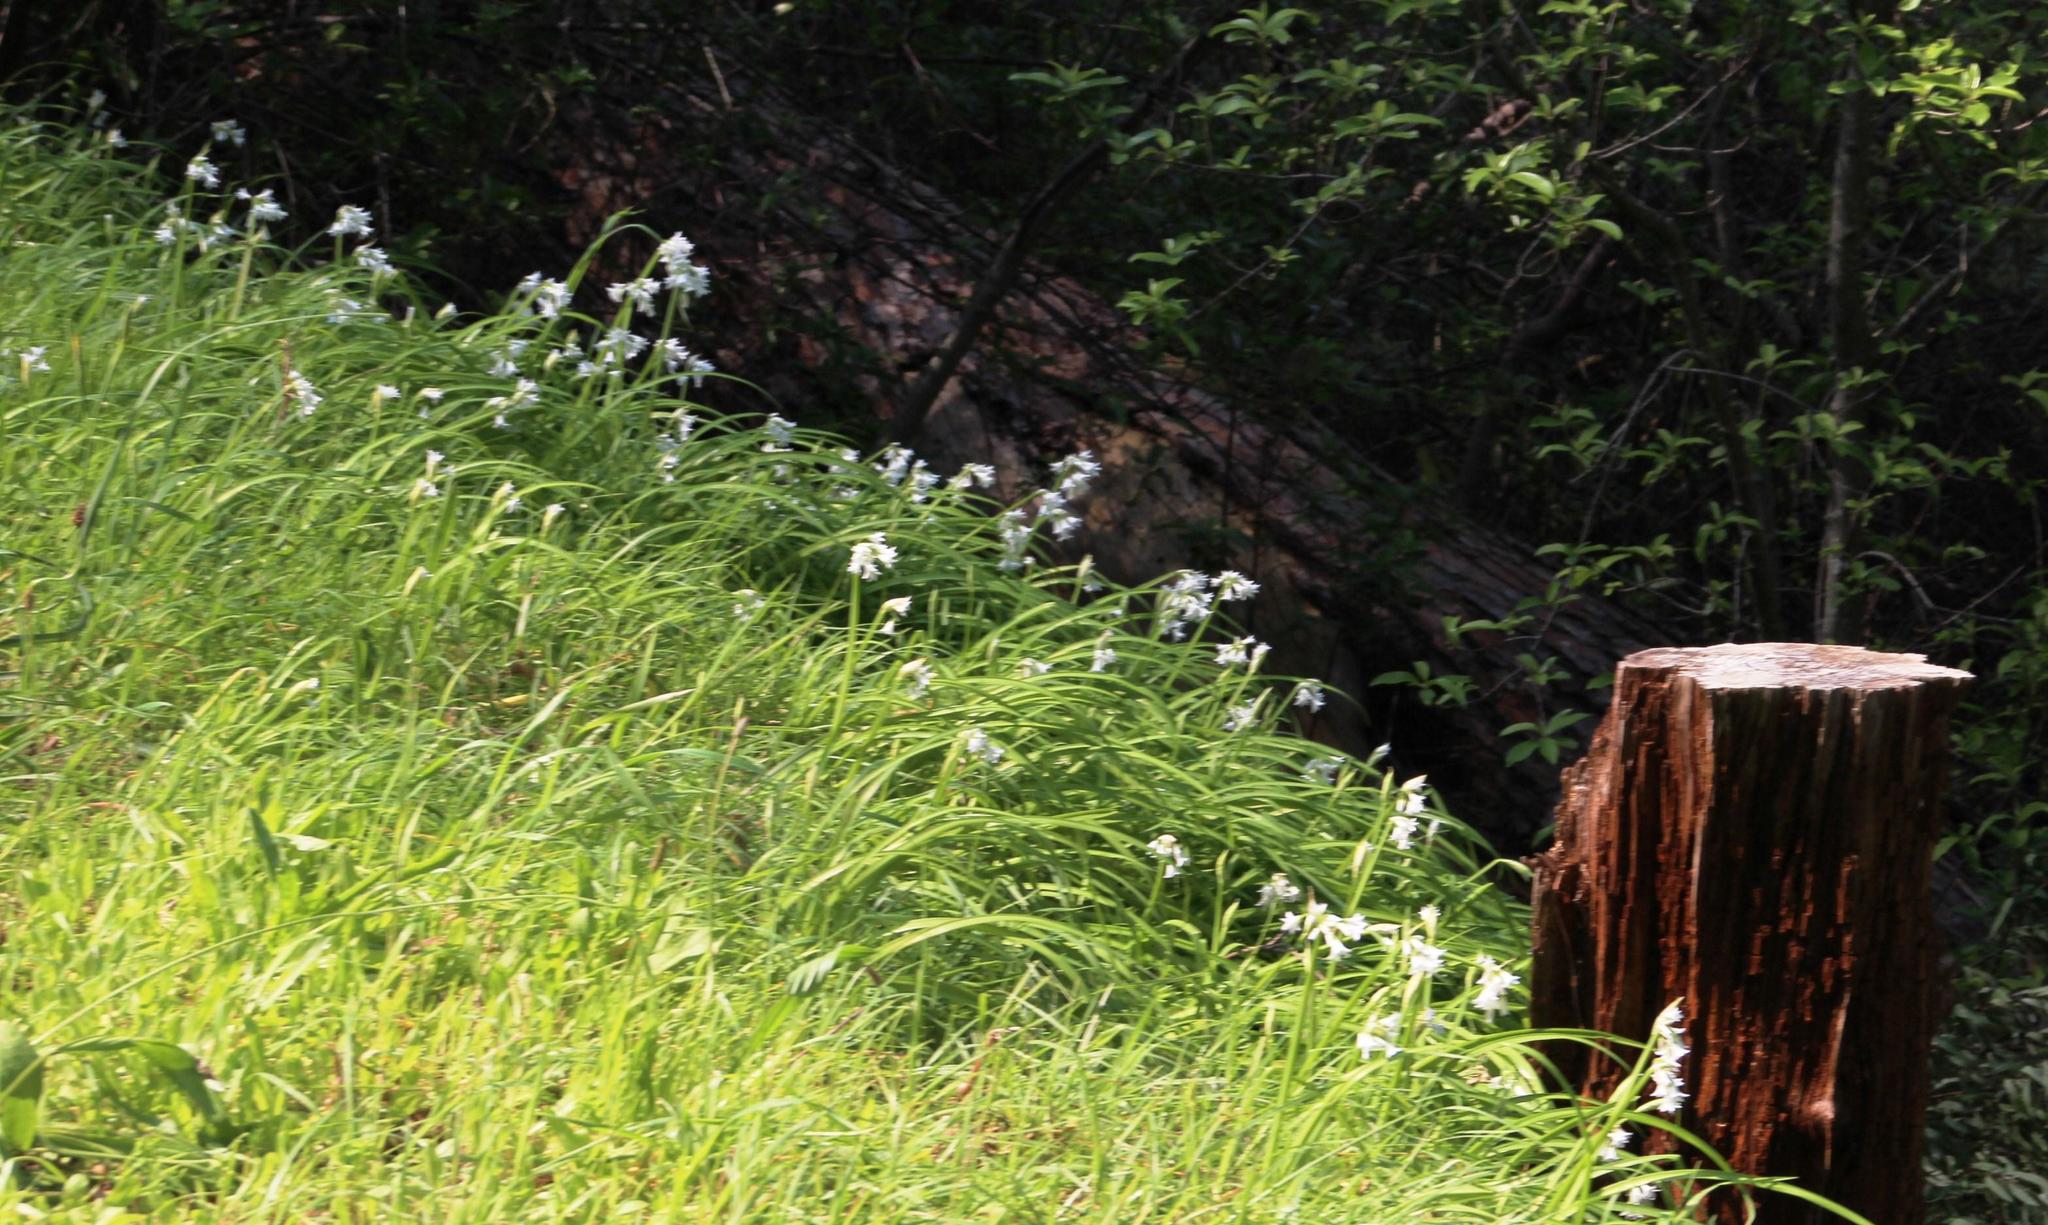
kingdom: Plantae
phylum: Tracheophyta
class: Liliopsida
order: Asparagales
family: Amaryllidaceae
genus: Allium
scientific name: Allium triquetrum
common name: Three-cornered garlic
